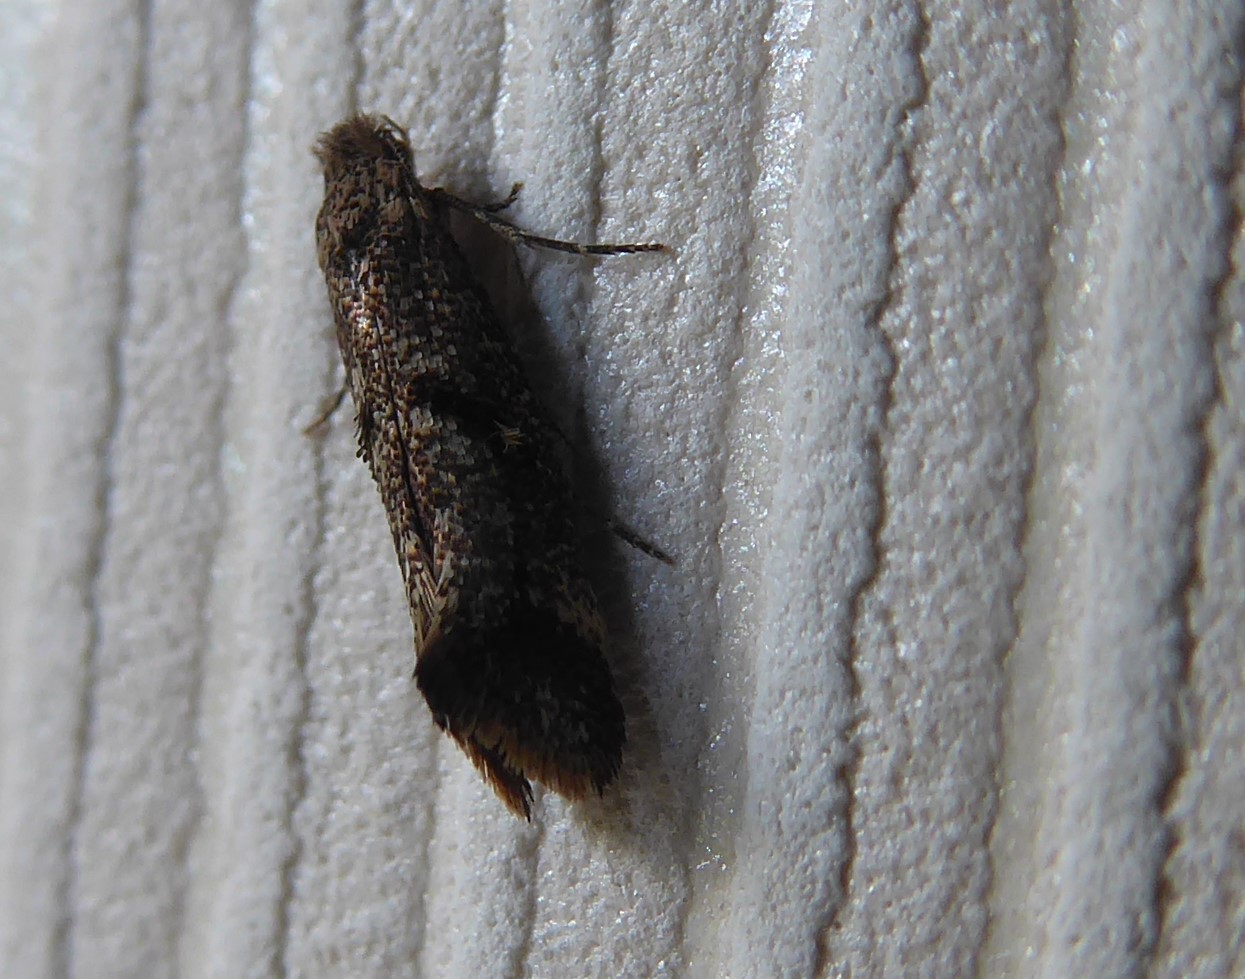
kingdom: Animalia
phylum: Arthropoda
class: Insecta
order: Lepidoptera
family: Tineidae
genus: Tinea
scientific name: Tinea mochlota
